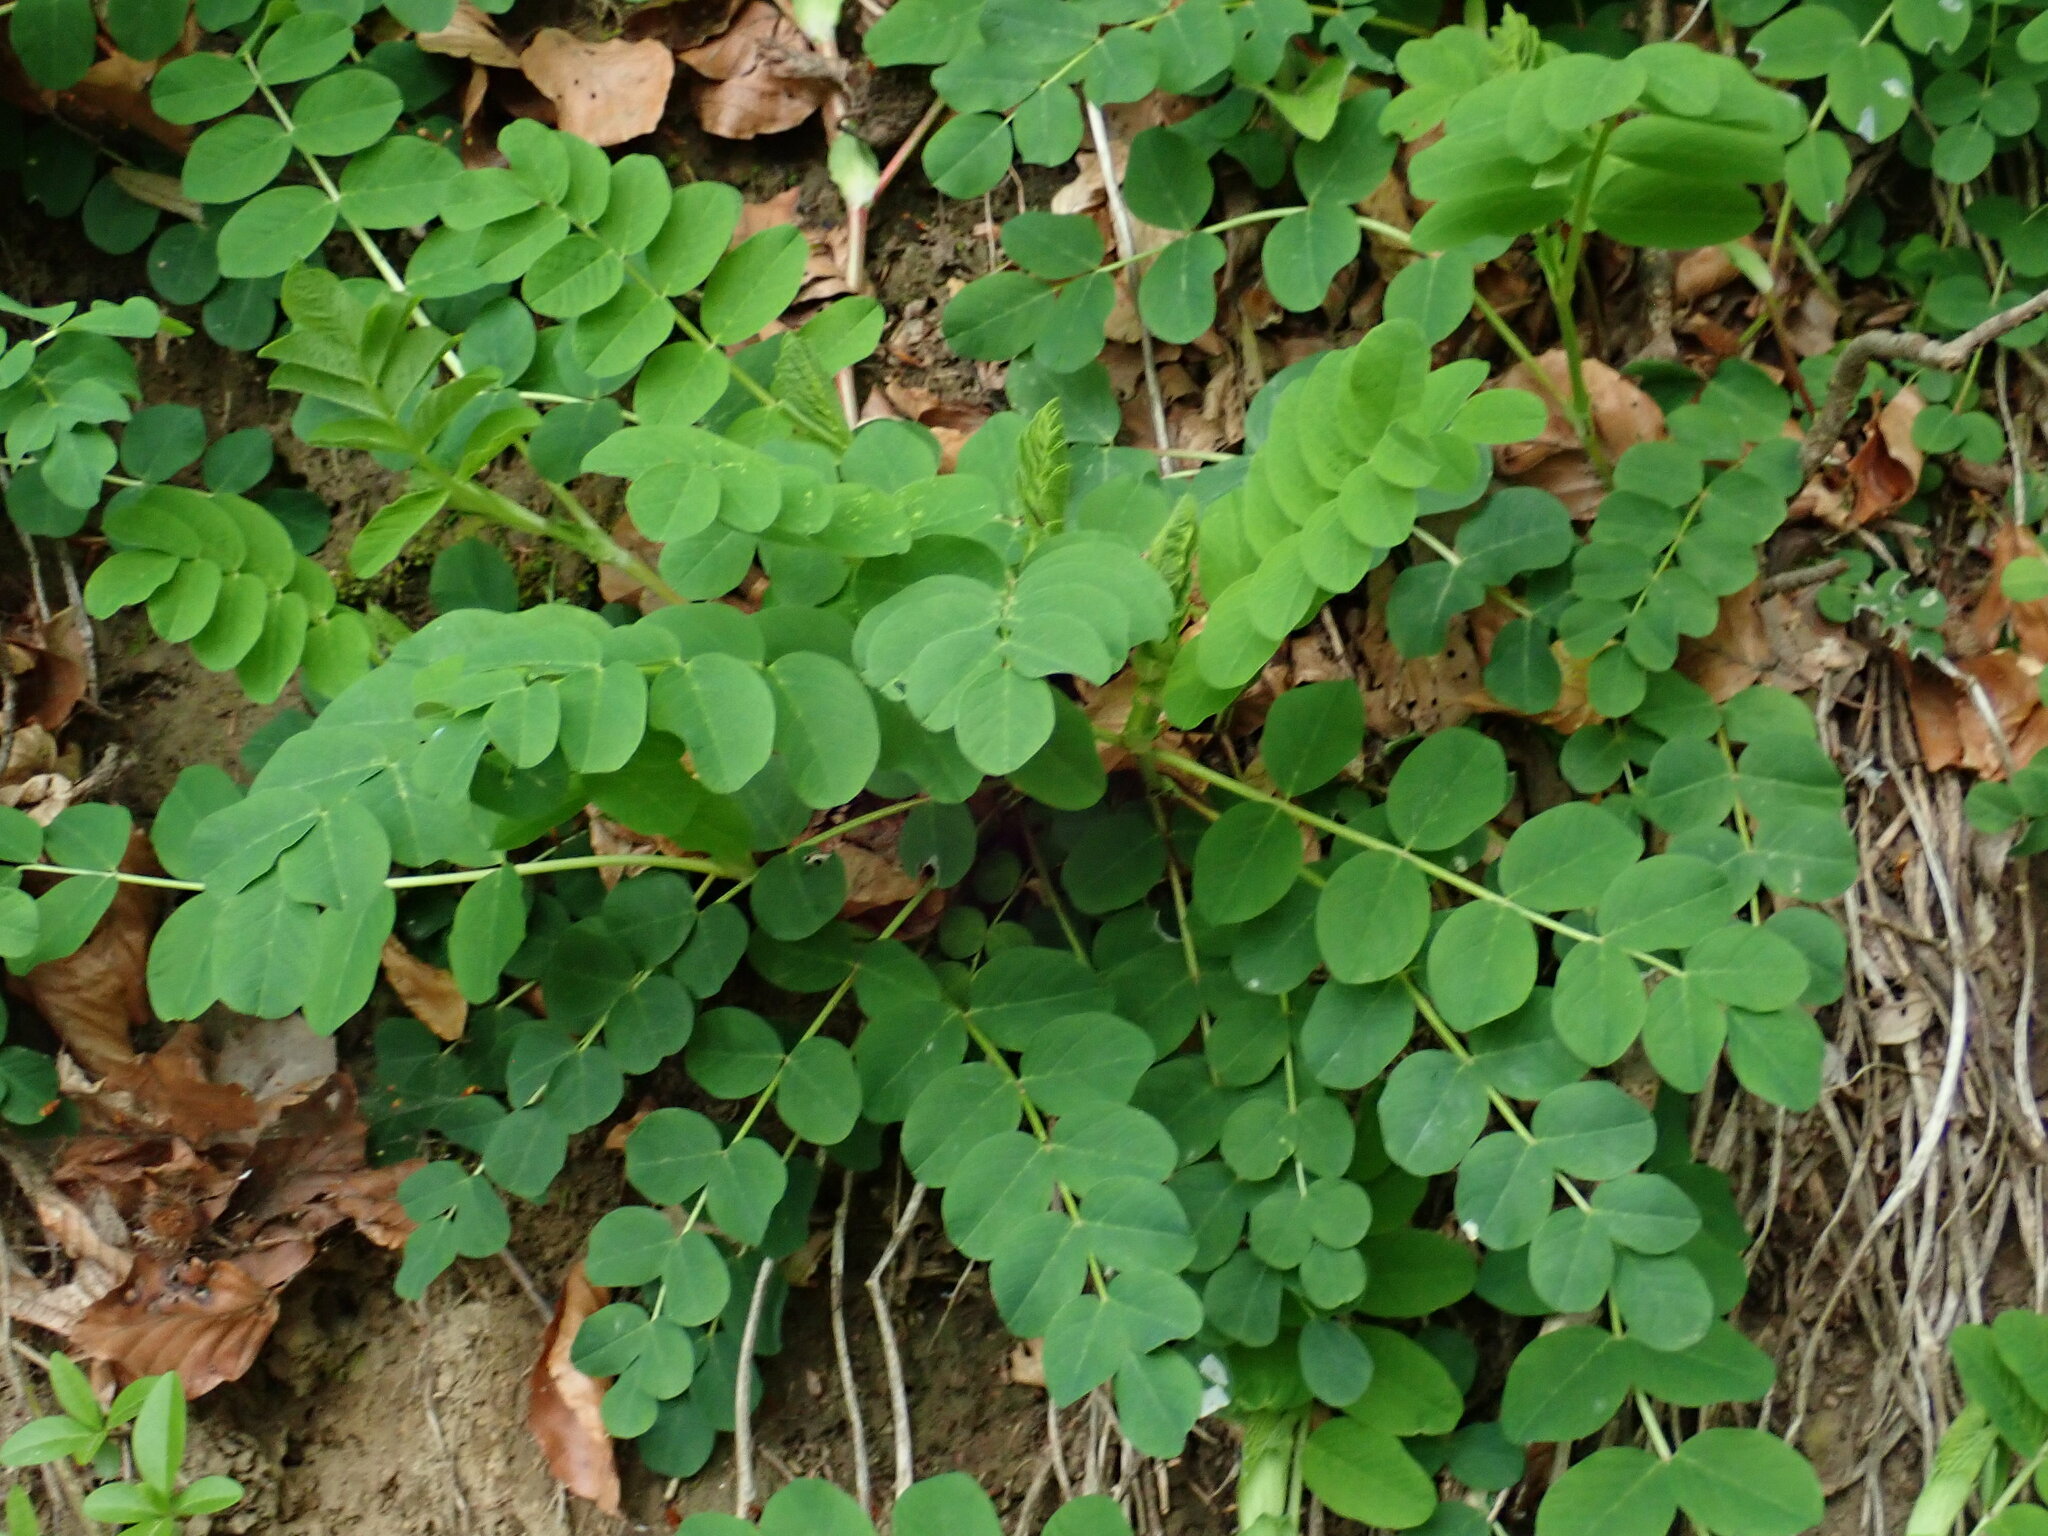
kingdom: Plantae
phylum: Tracheophyta
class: Magnoliopsida
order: Fabales
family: Fabaceae
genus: Astragalus
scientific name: Astragalus glycyphyllos
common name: Wild liquorice
